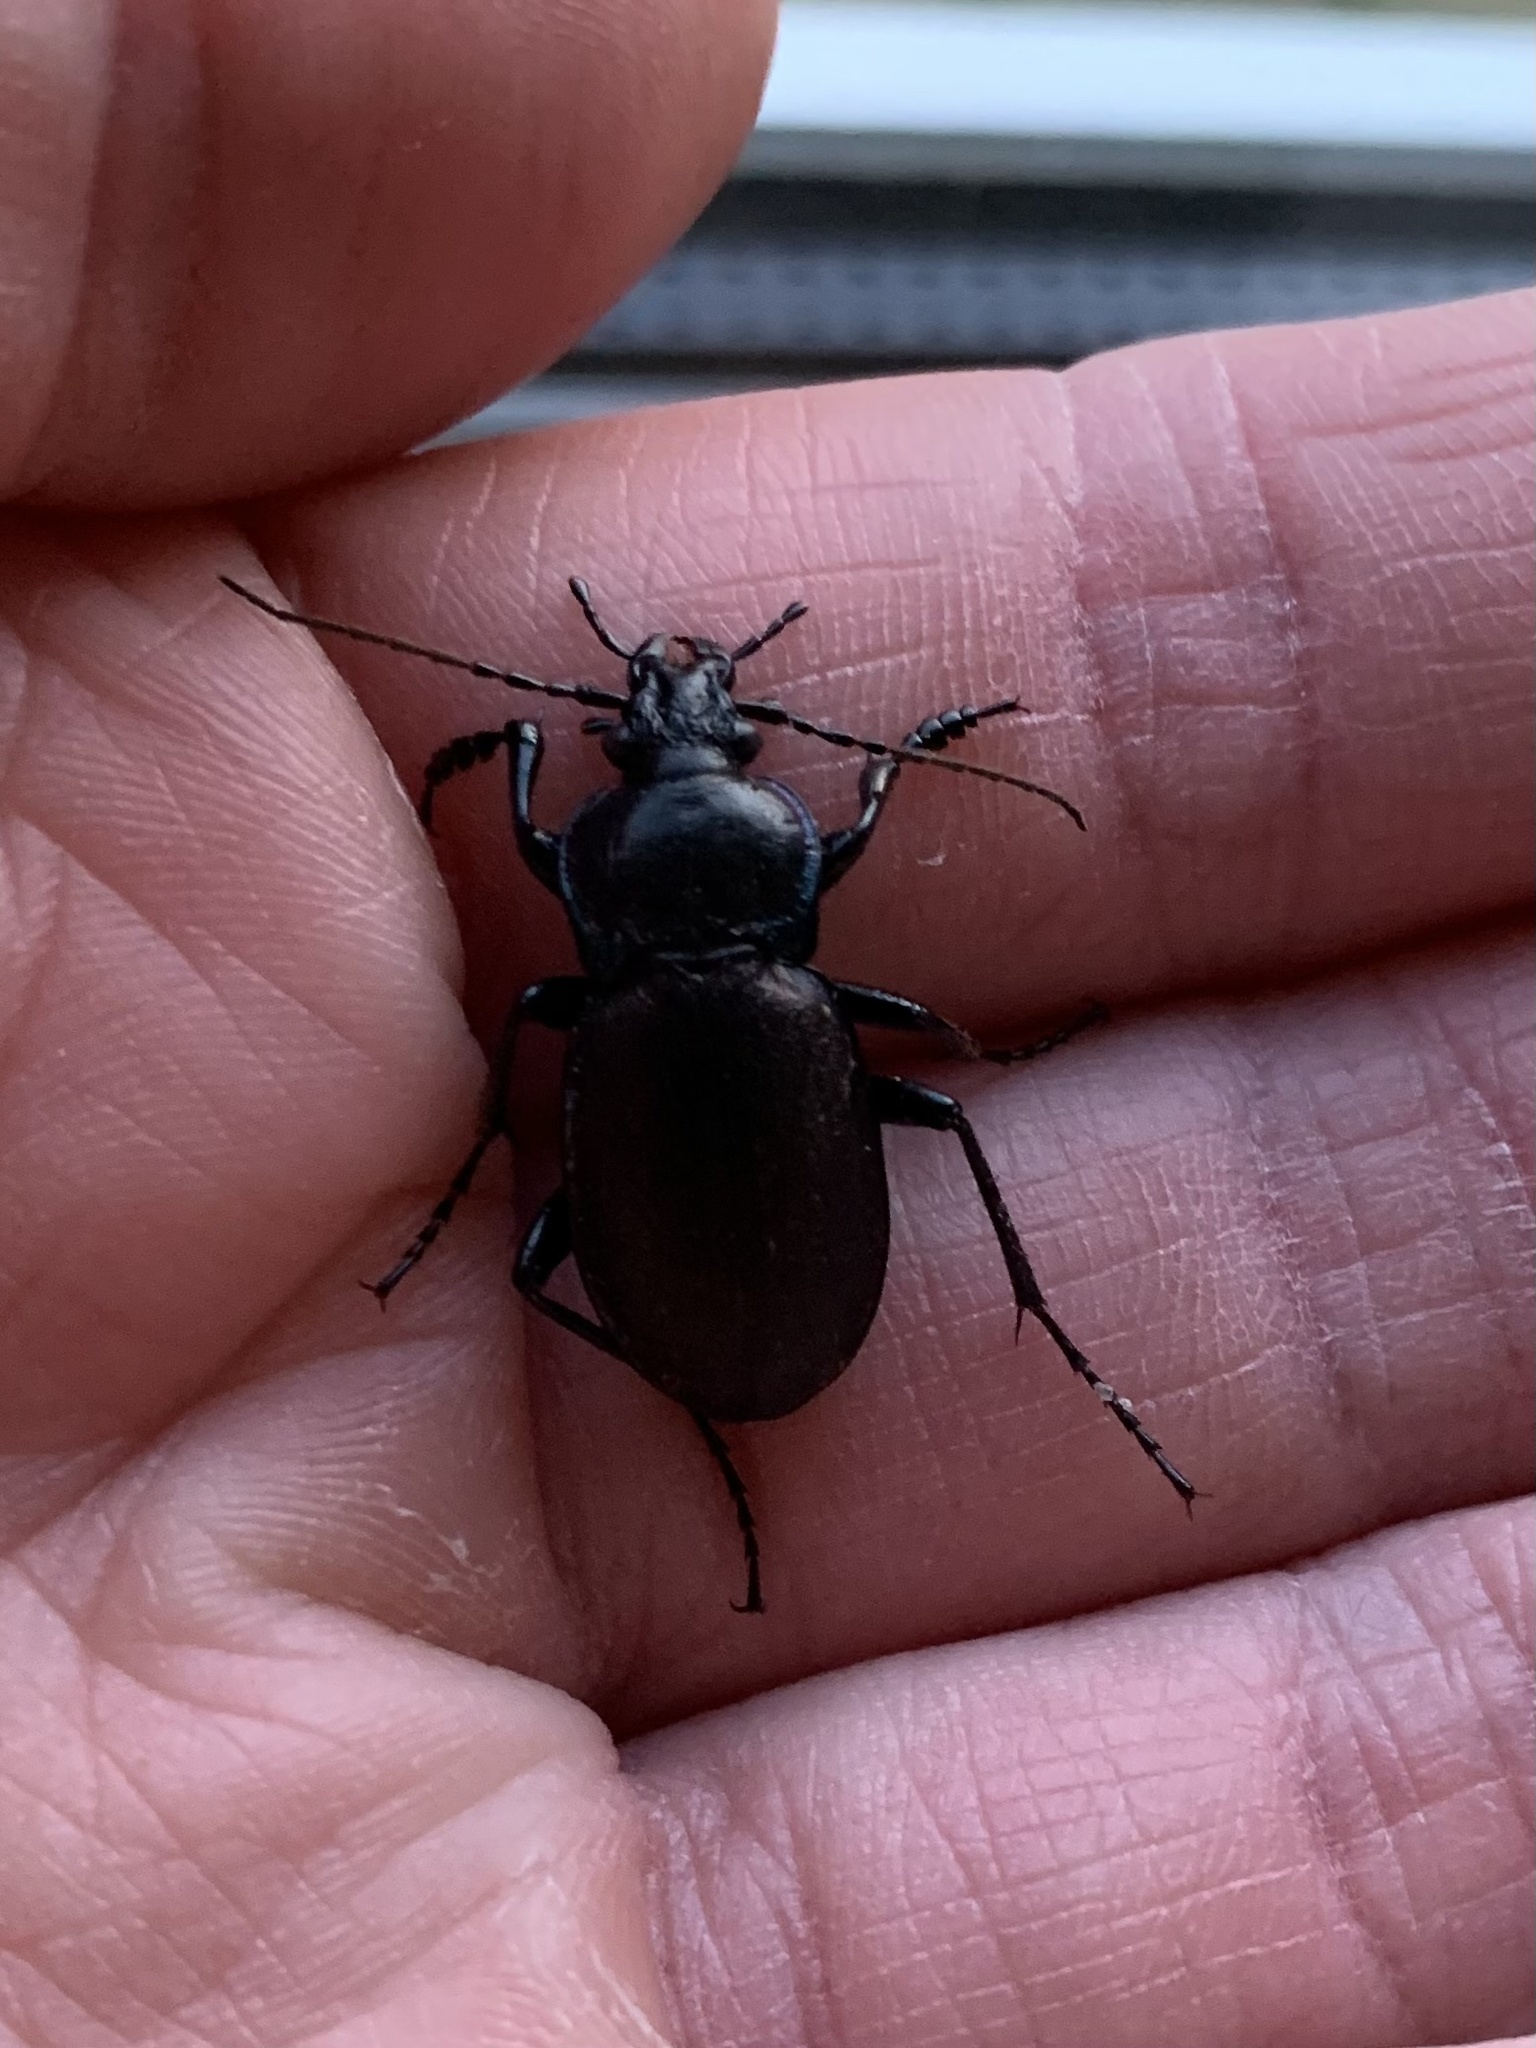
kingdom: Animalia
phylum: Arthropoda
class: Insecta
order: Coleoptera
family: Carabidae
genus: Carabus
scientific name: Carabus nemoralis
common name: European ground beetle
